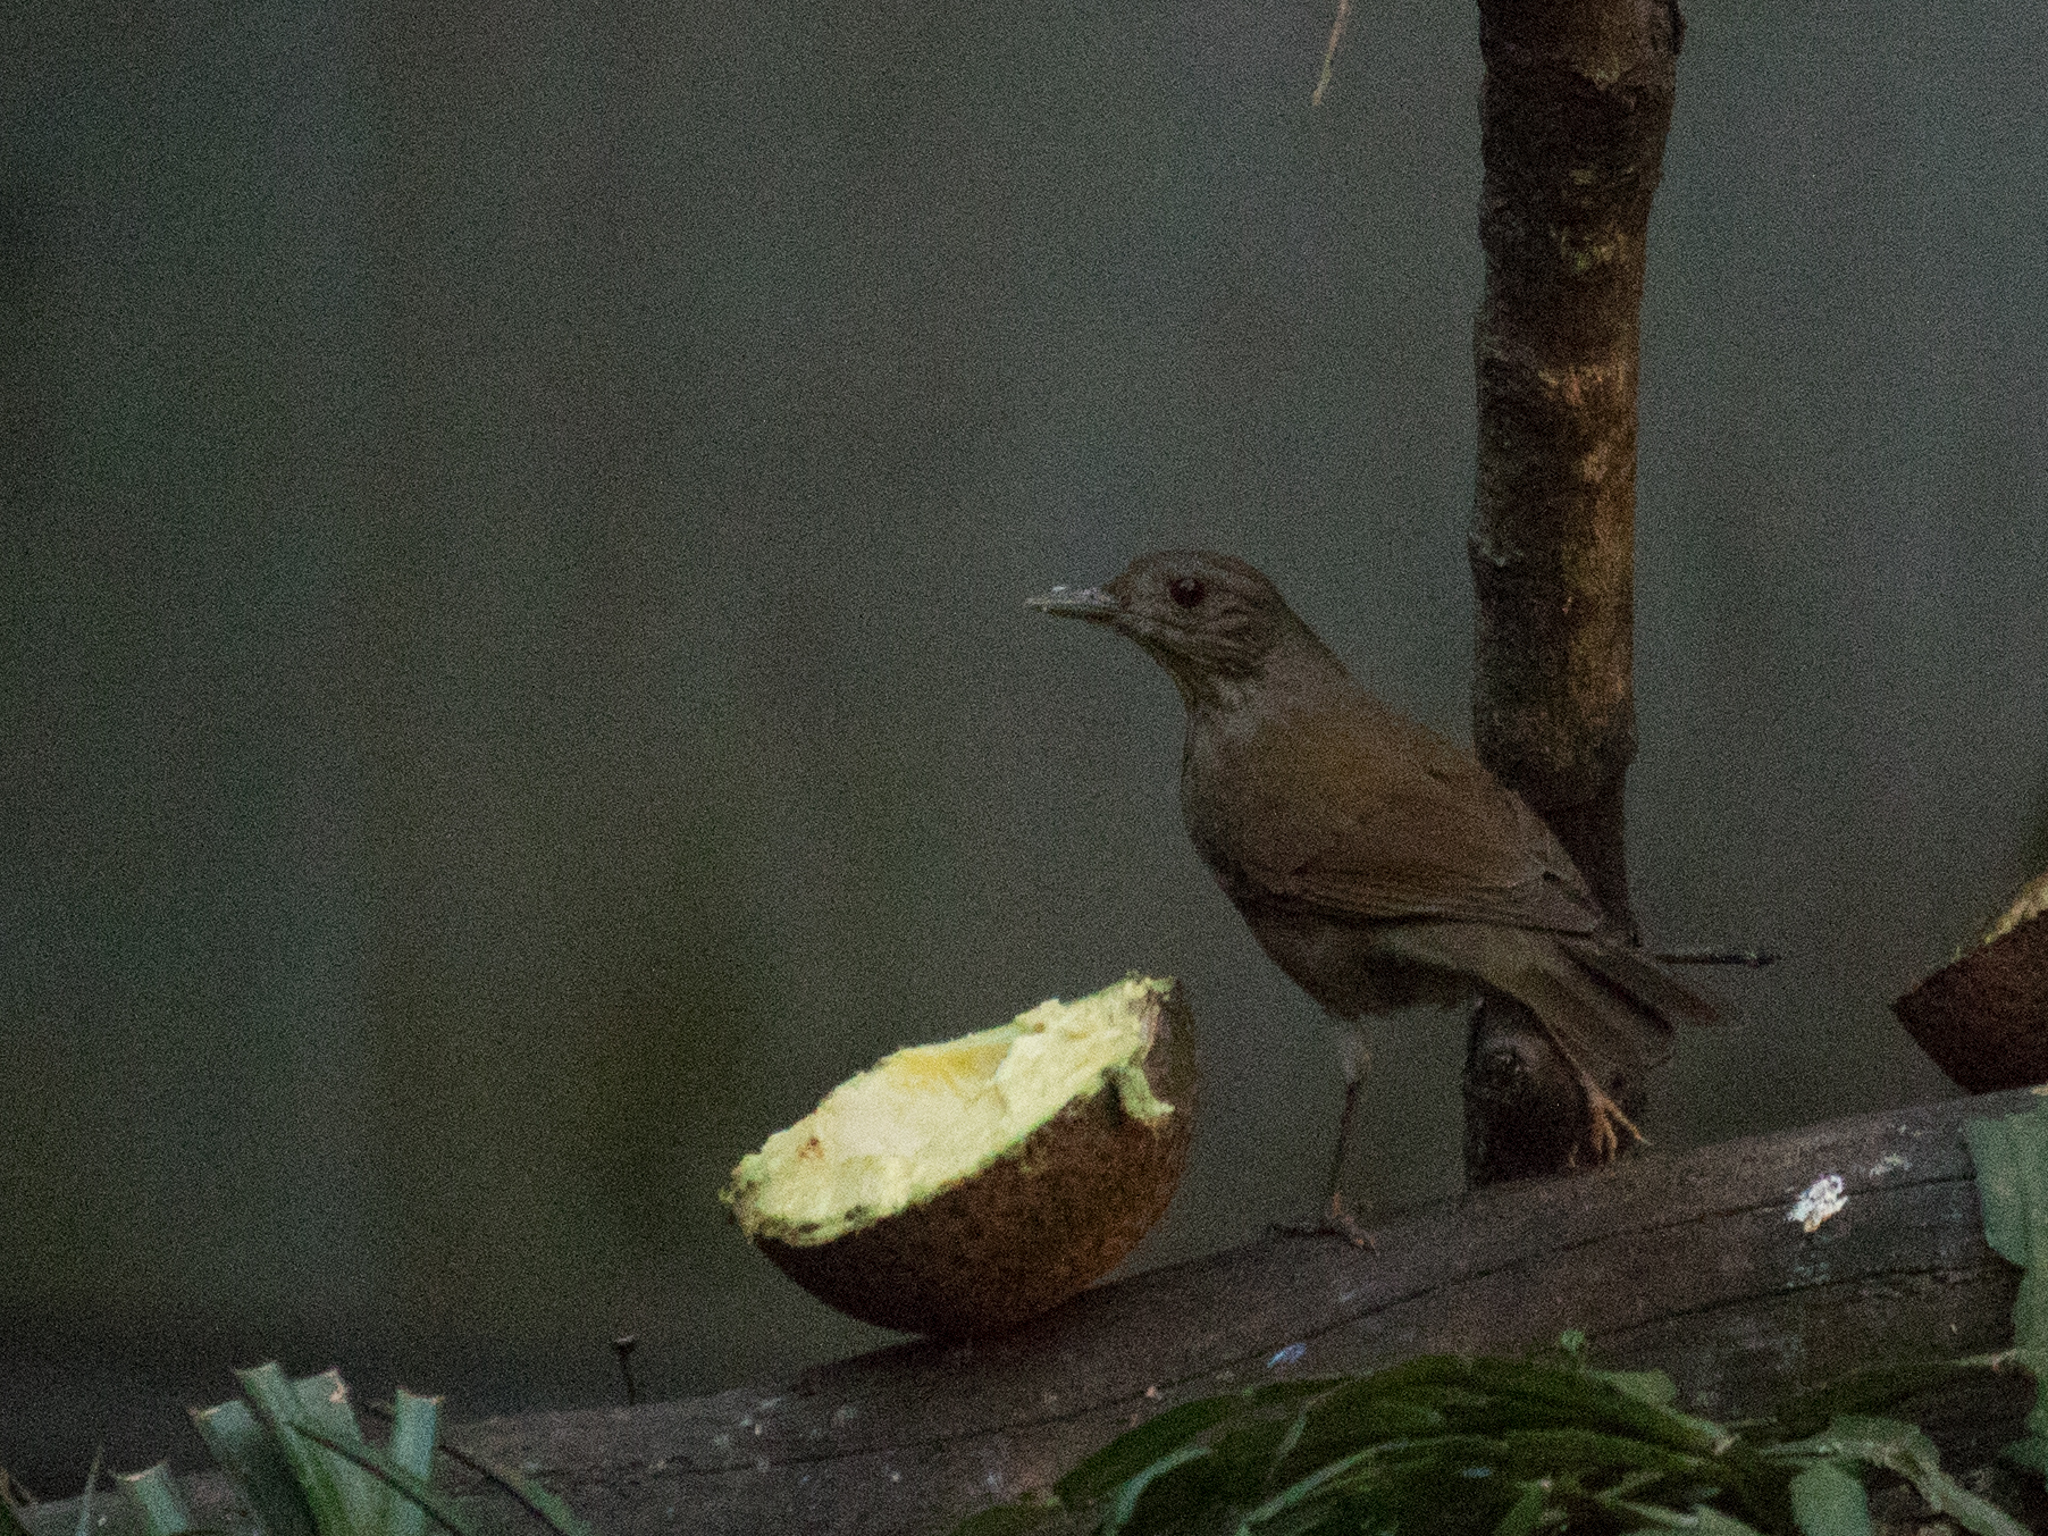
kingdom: Animalia
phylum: Chordata
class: Aves
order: Passeriformes
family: Turdidae
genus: Turdus
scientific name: Turdus leucomelas
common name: Pale-breasted thrush
